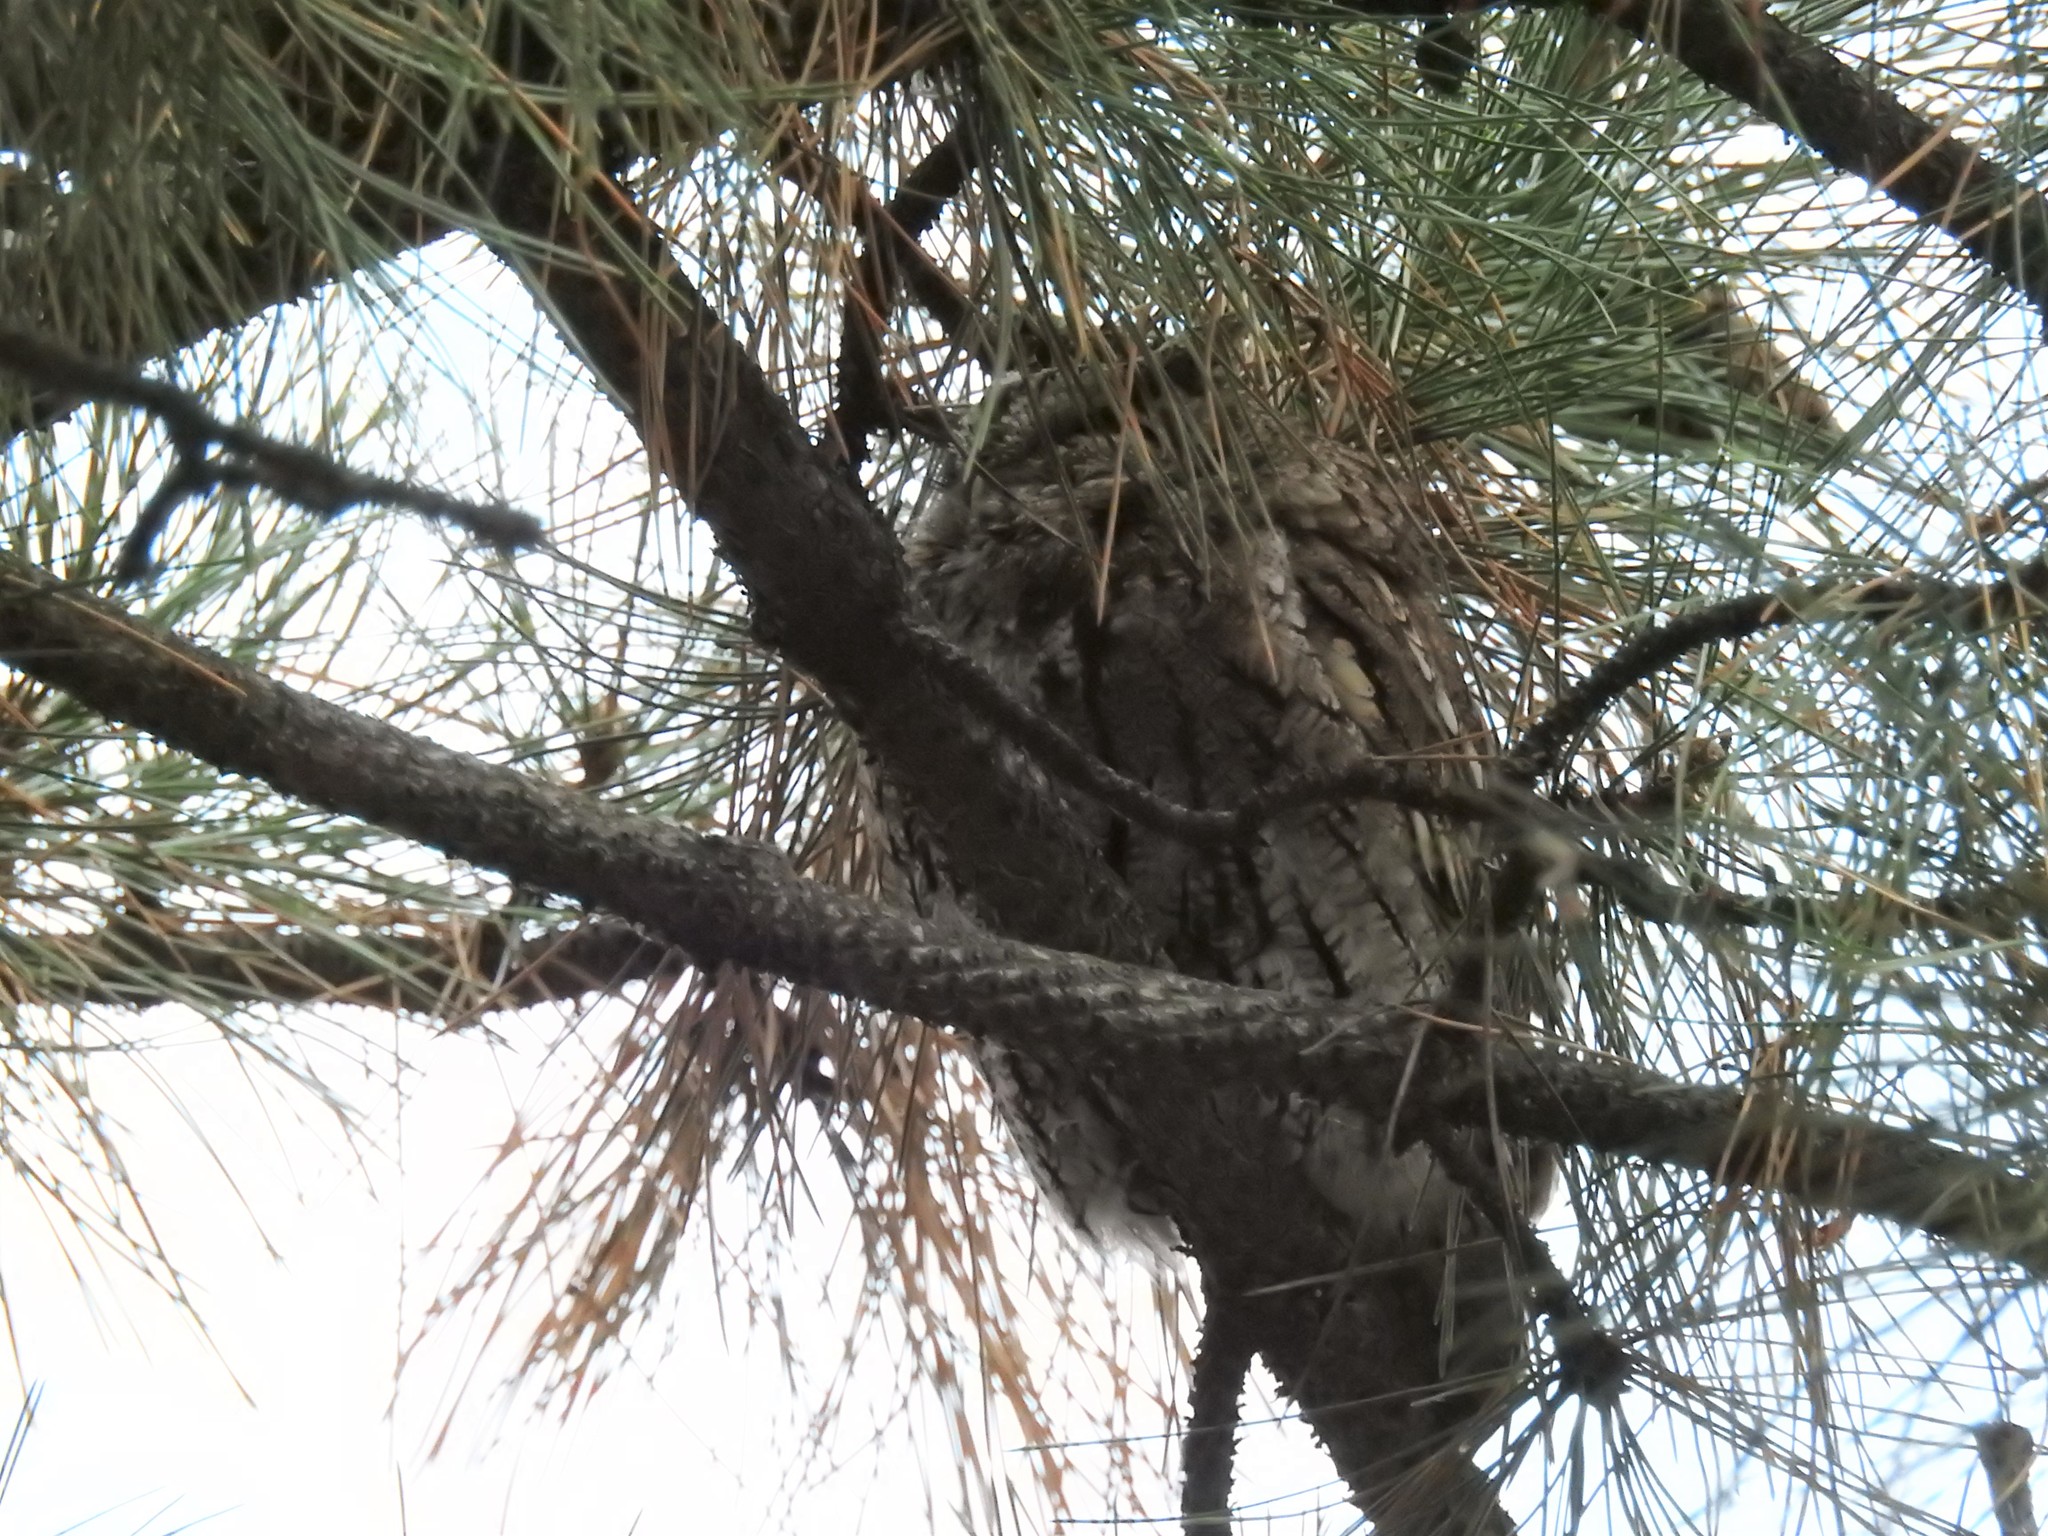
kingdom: Animalia
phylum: Chordata
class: Aves
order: Strigiformes
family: Strigidae
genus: Megascops
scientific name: Megascops kennicottii
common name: Western screech-owl
